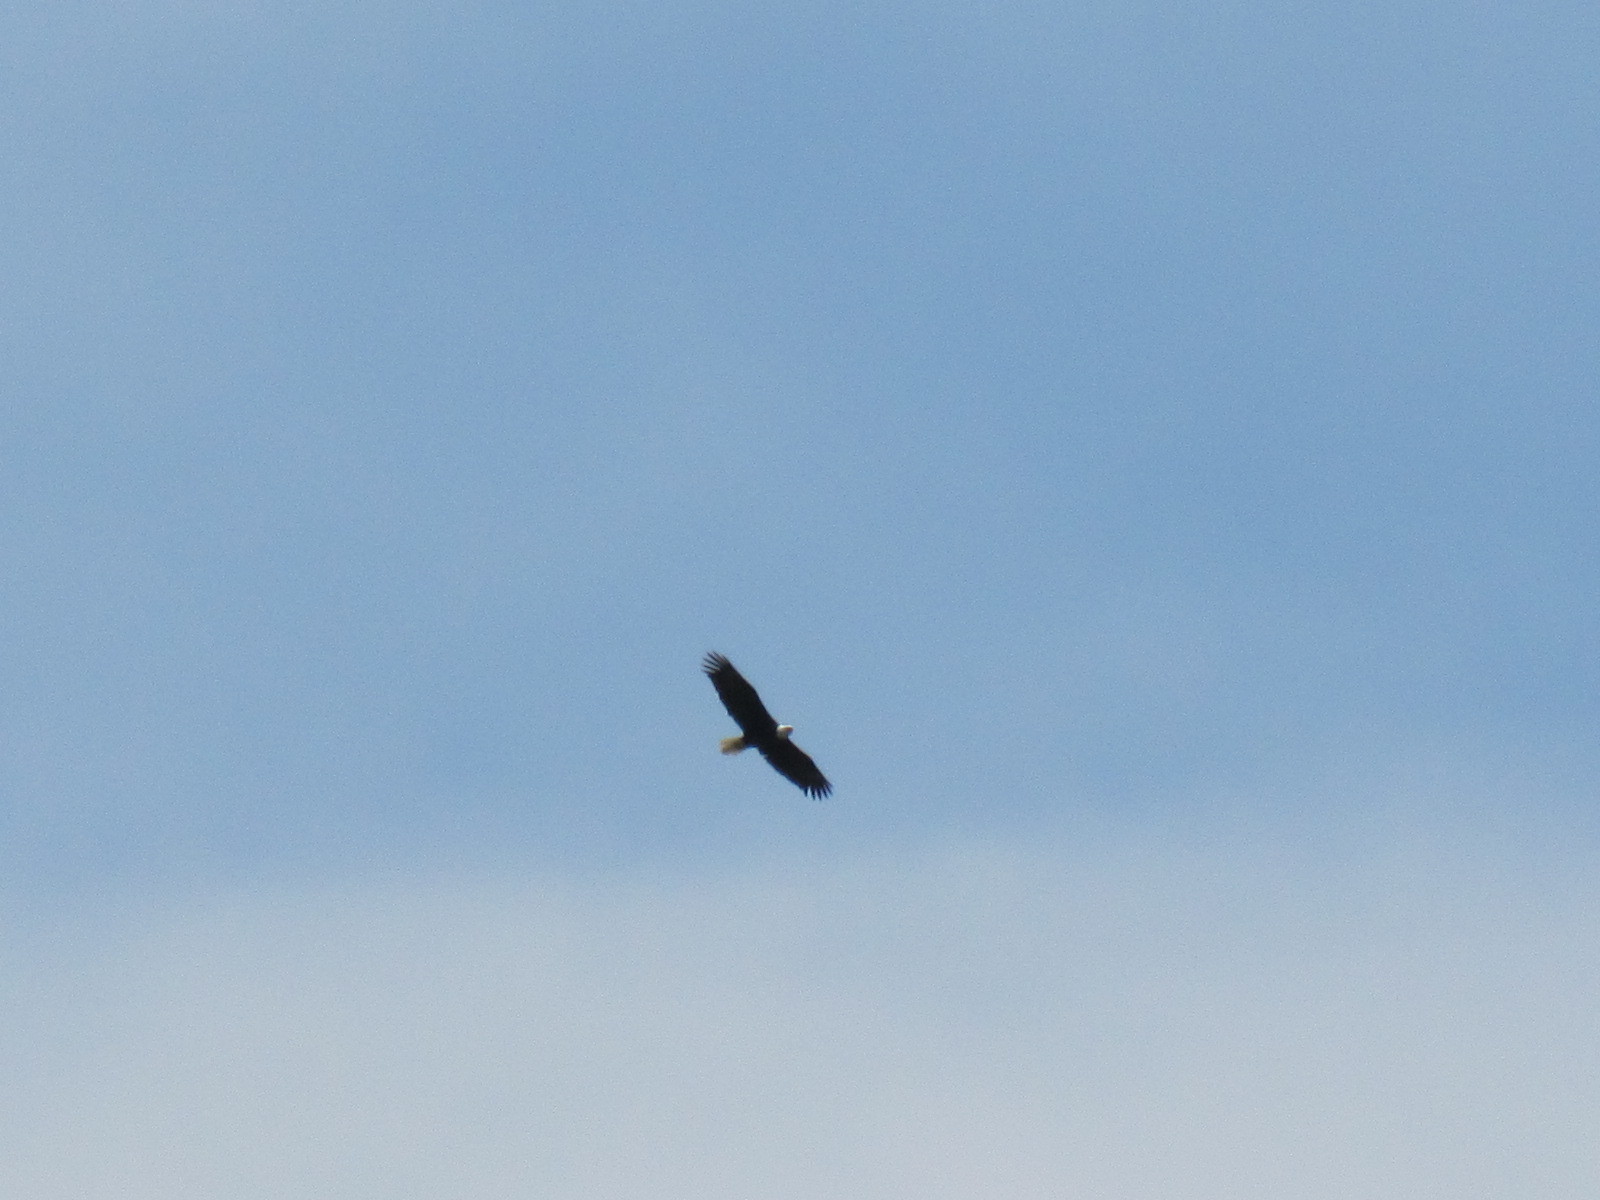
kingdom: Animalia
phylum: Chordata
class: Aves
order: Accipitriformes
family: Accipitridae
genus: Haliaeetus
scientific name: Haliaeetus leucocephalus
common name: Bald eagle
